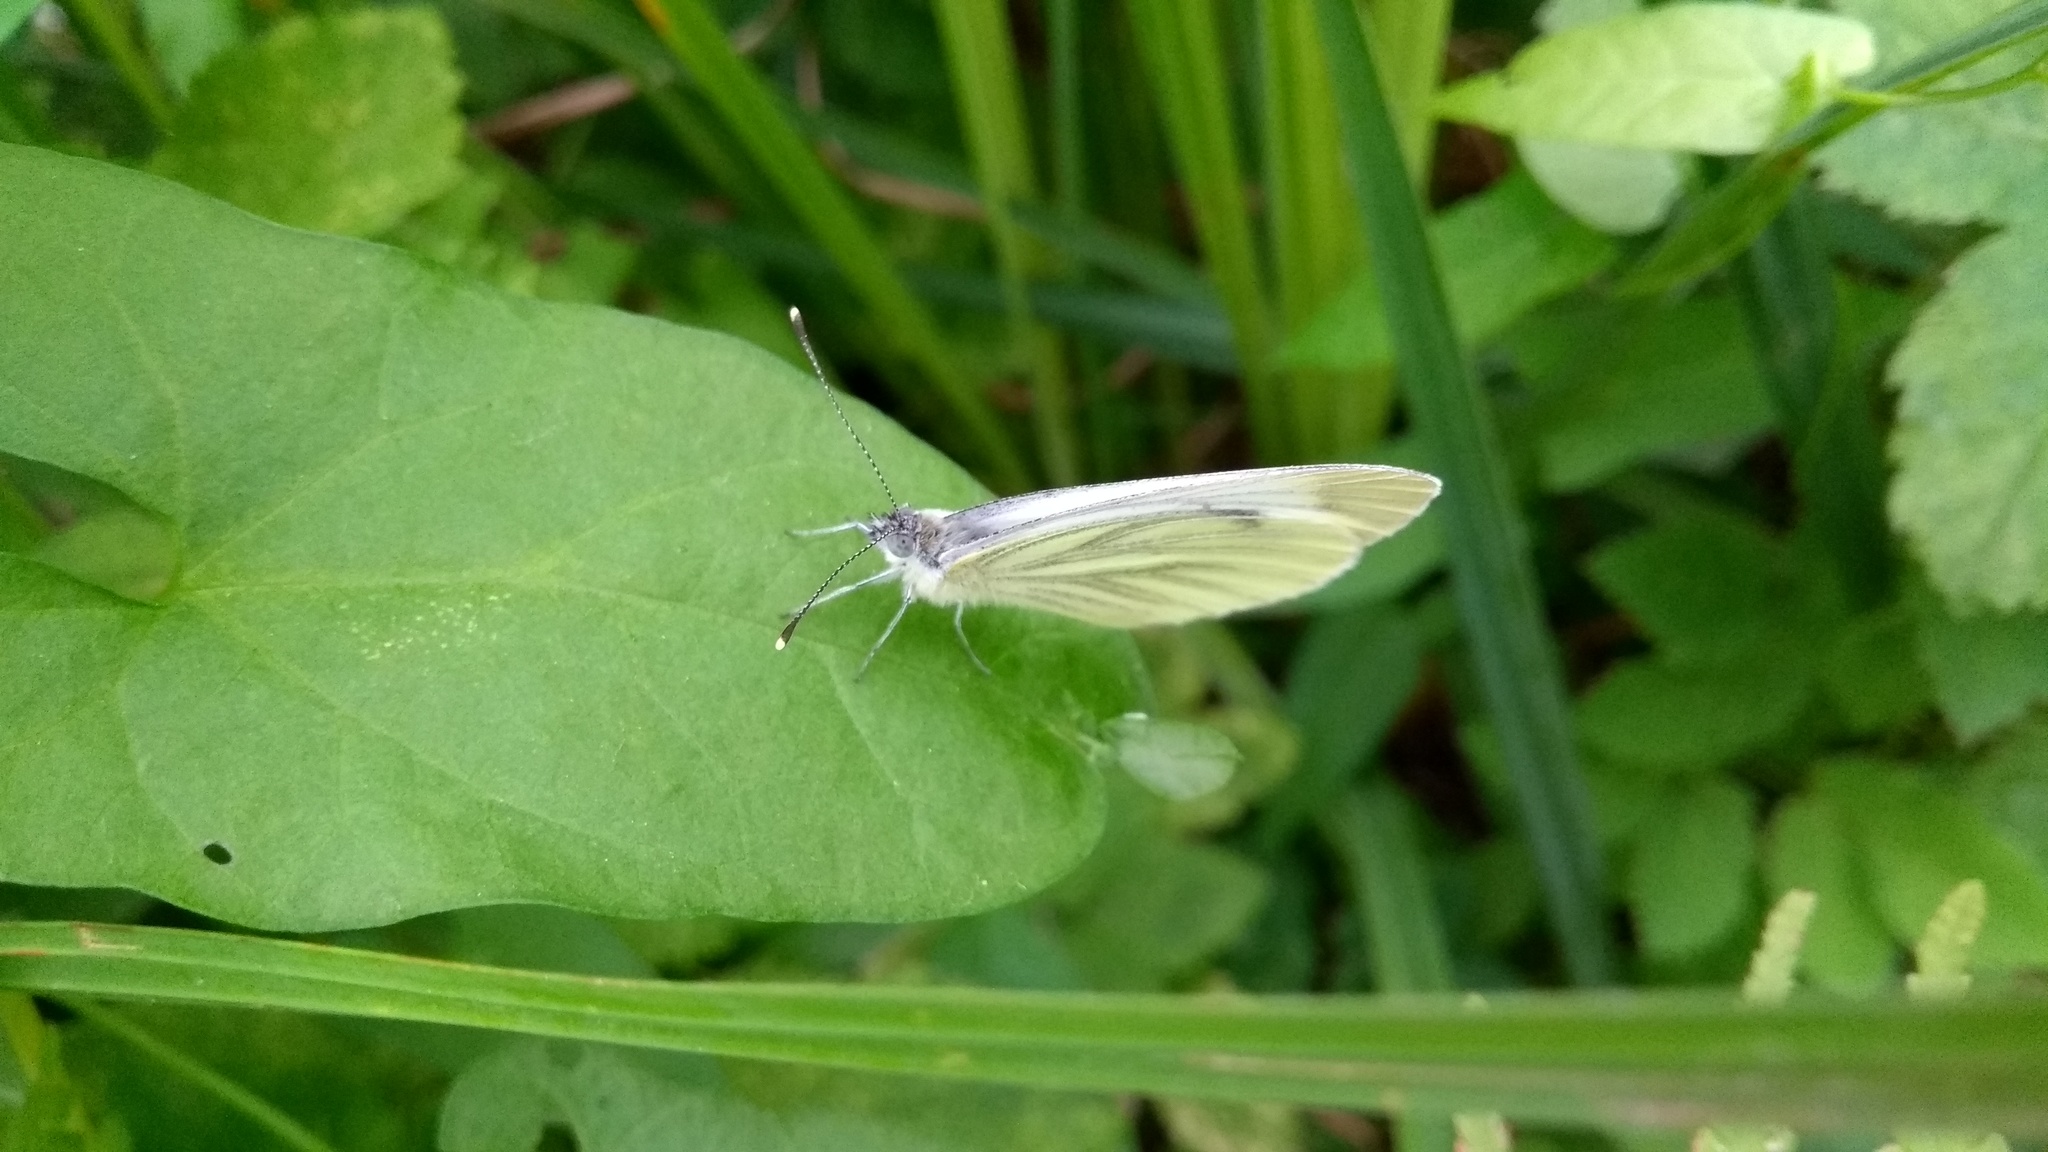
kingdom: Animalia
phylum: Arthropoda
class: Insecta
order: Lepidoptera
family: Pieridae
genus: Pieris
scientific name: Pieris napi
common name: Green-veined white
